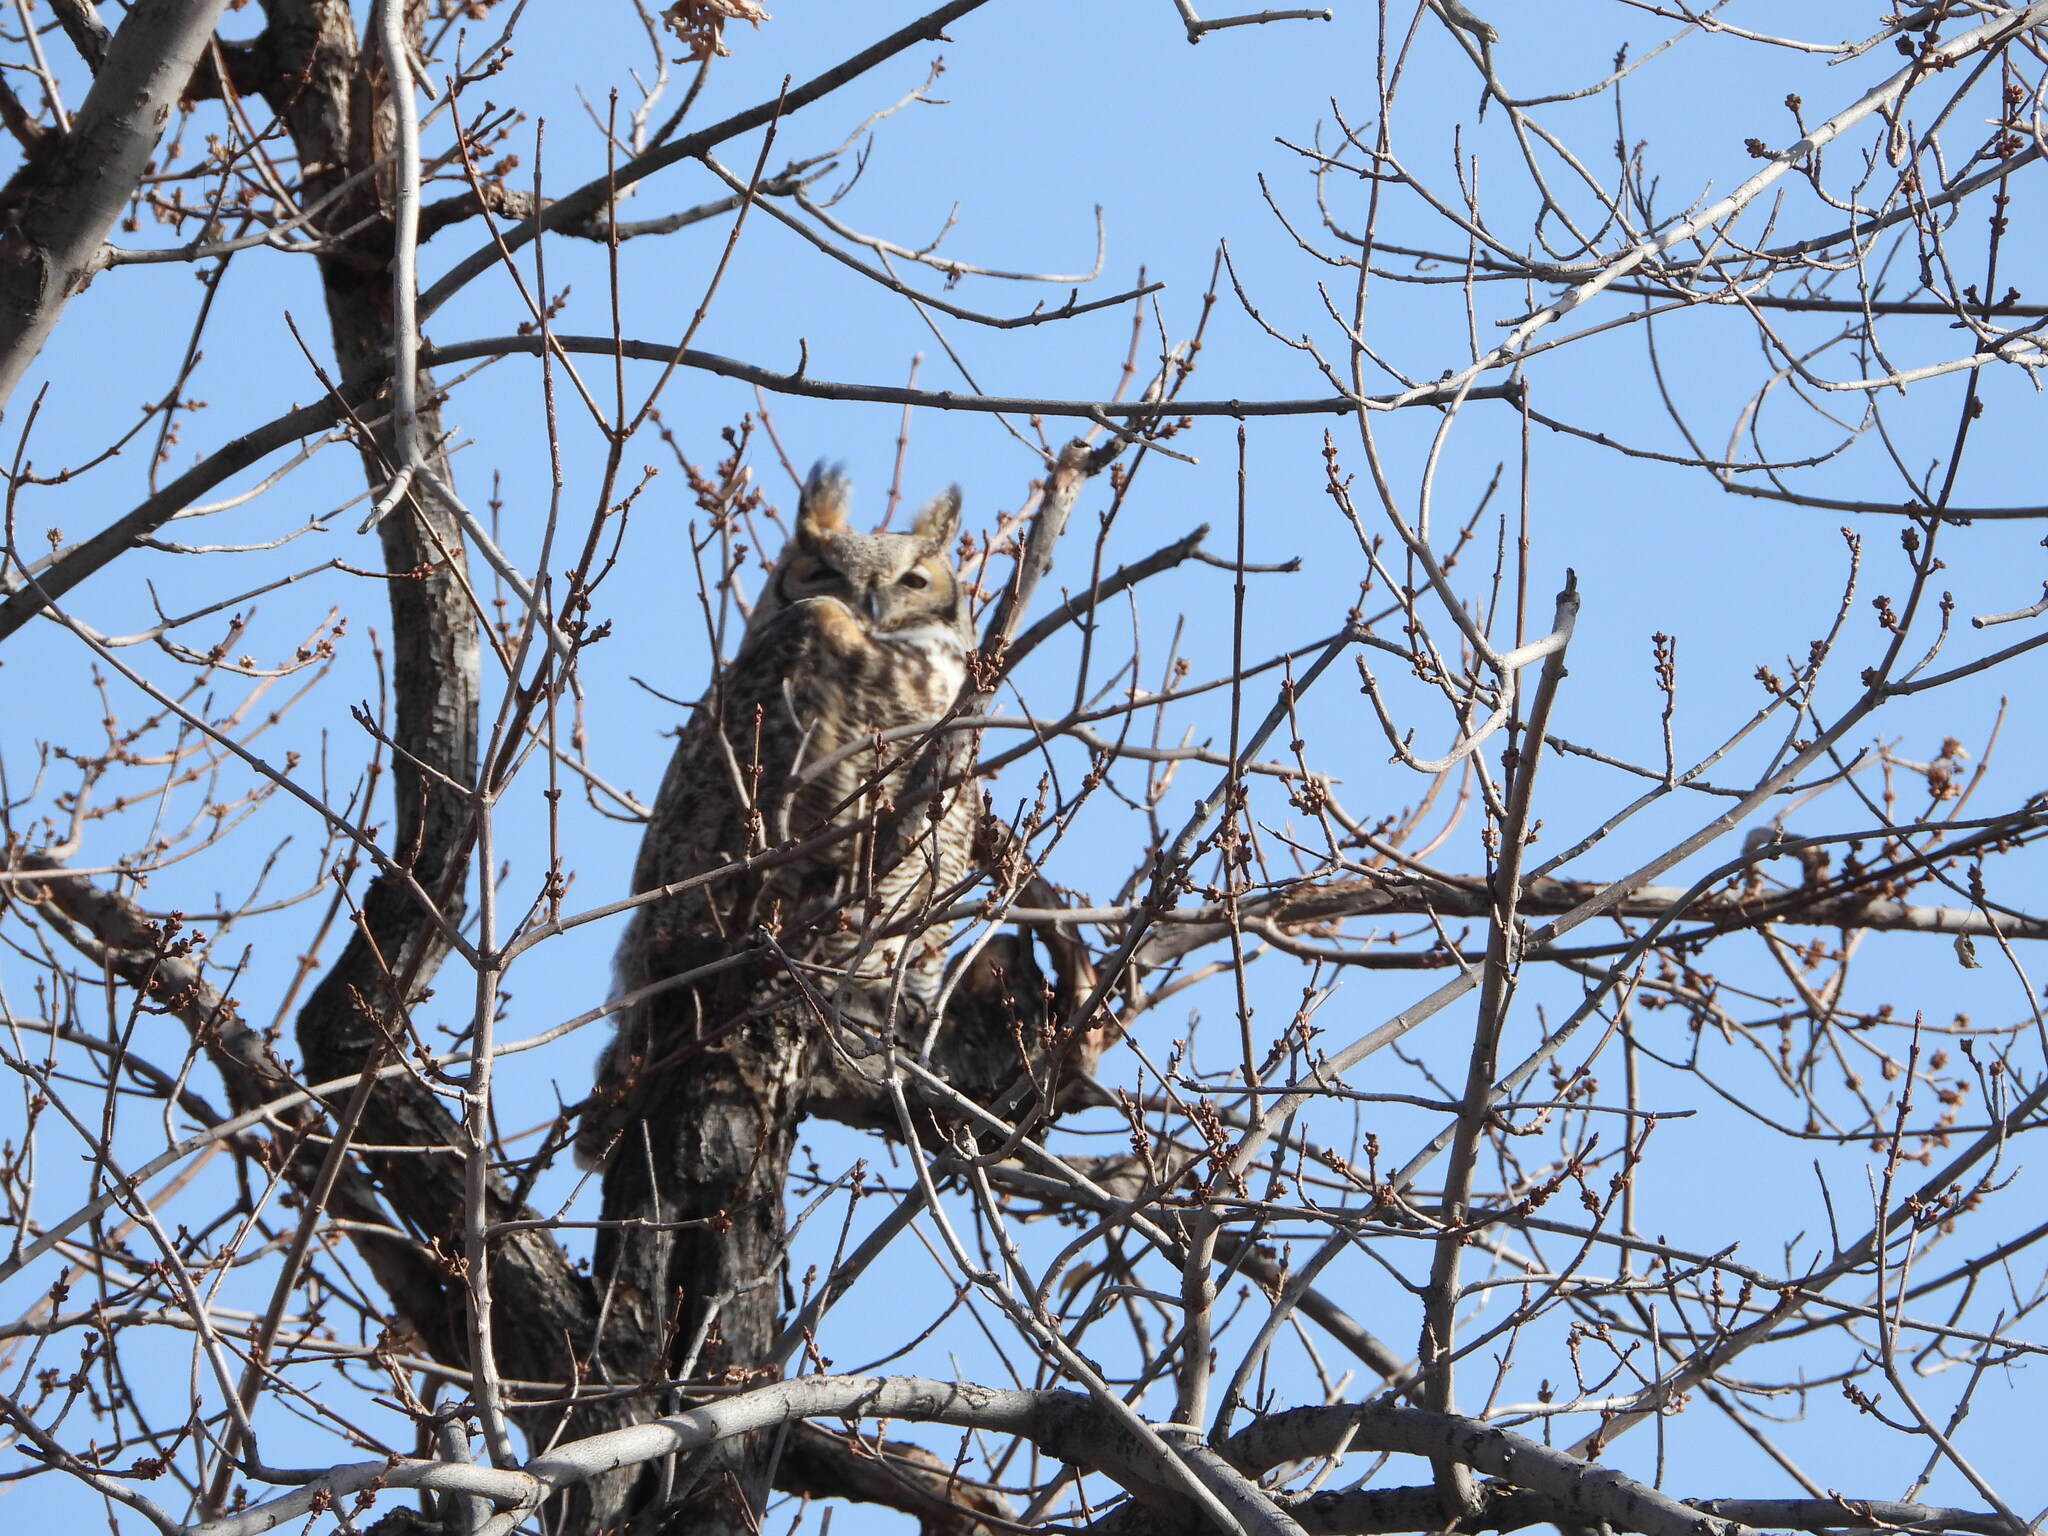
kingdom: Animalia
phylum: Chordata
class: Aves
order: Strigiformes
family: Strigidae
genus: Bubo
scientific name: Bubo virginianus
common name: Great horned owl
